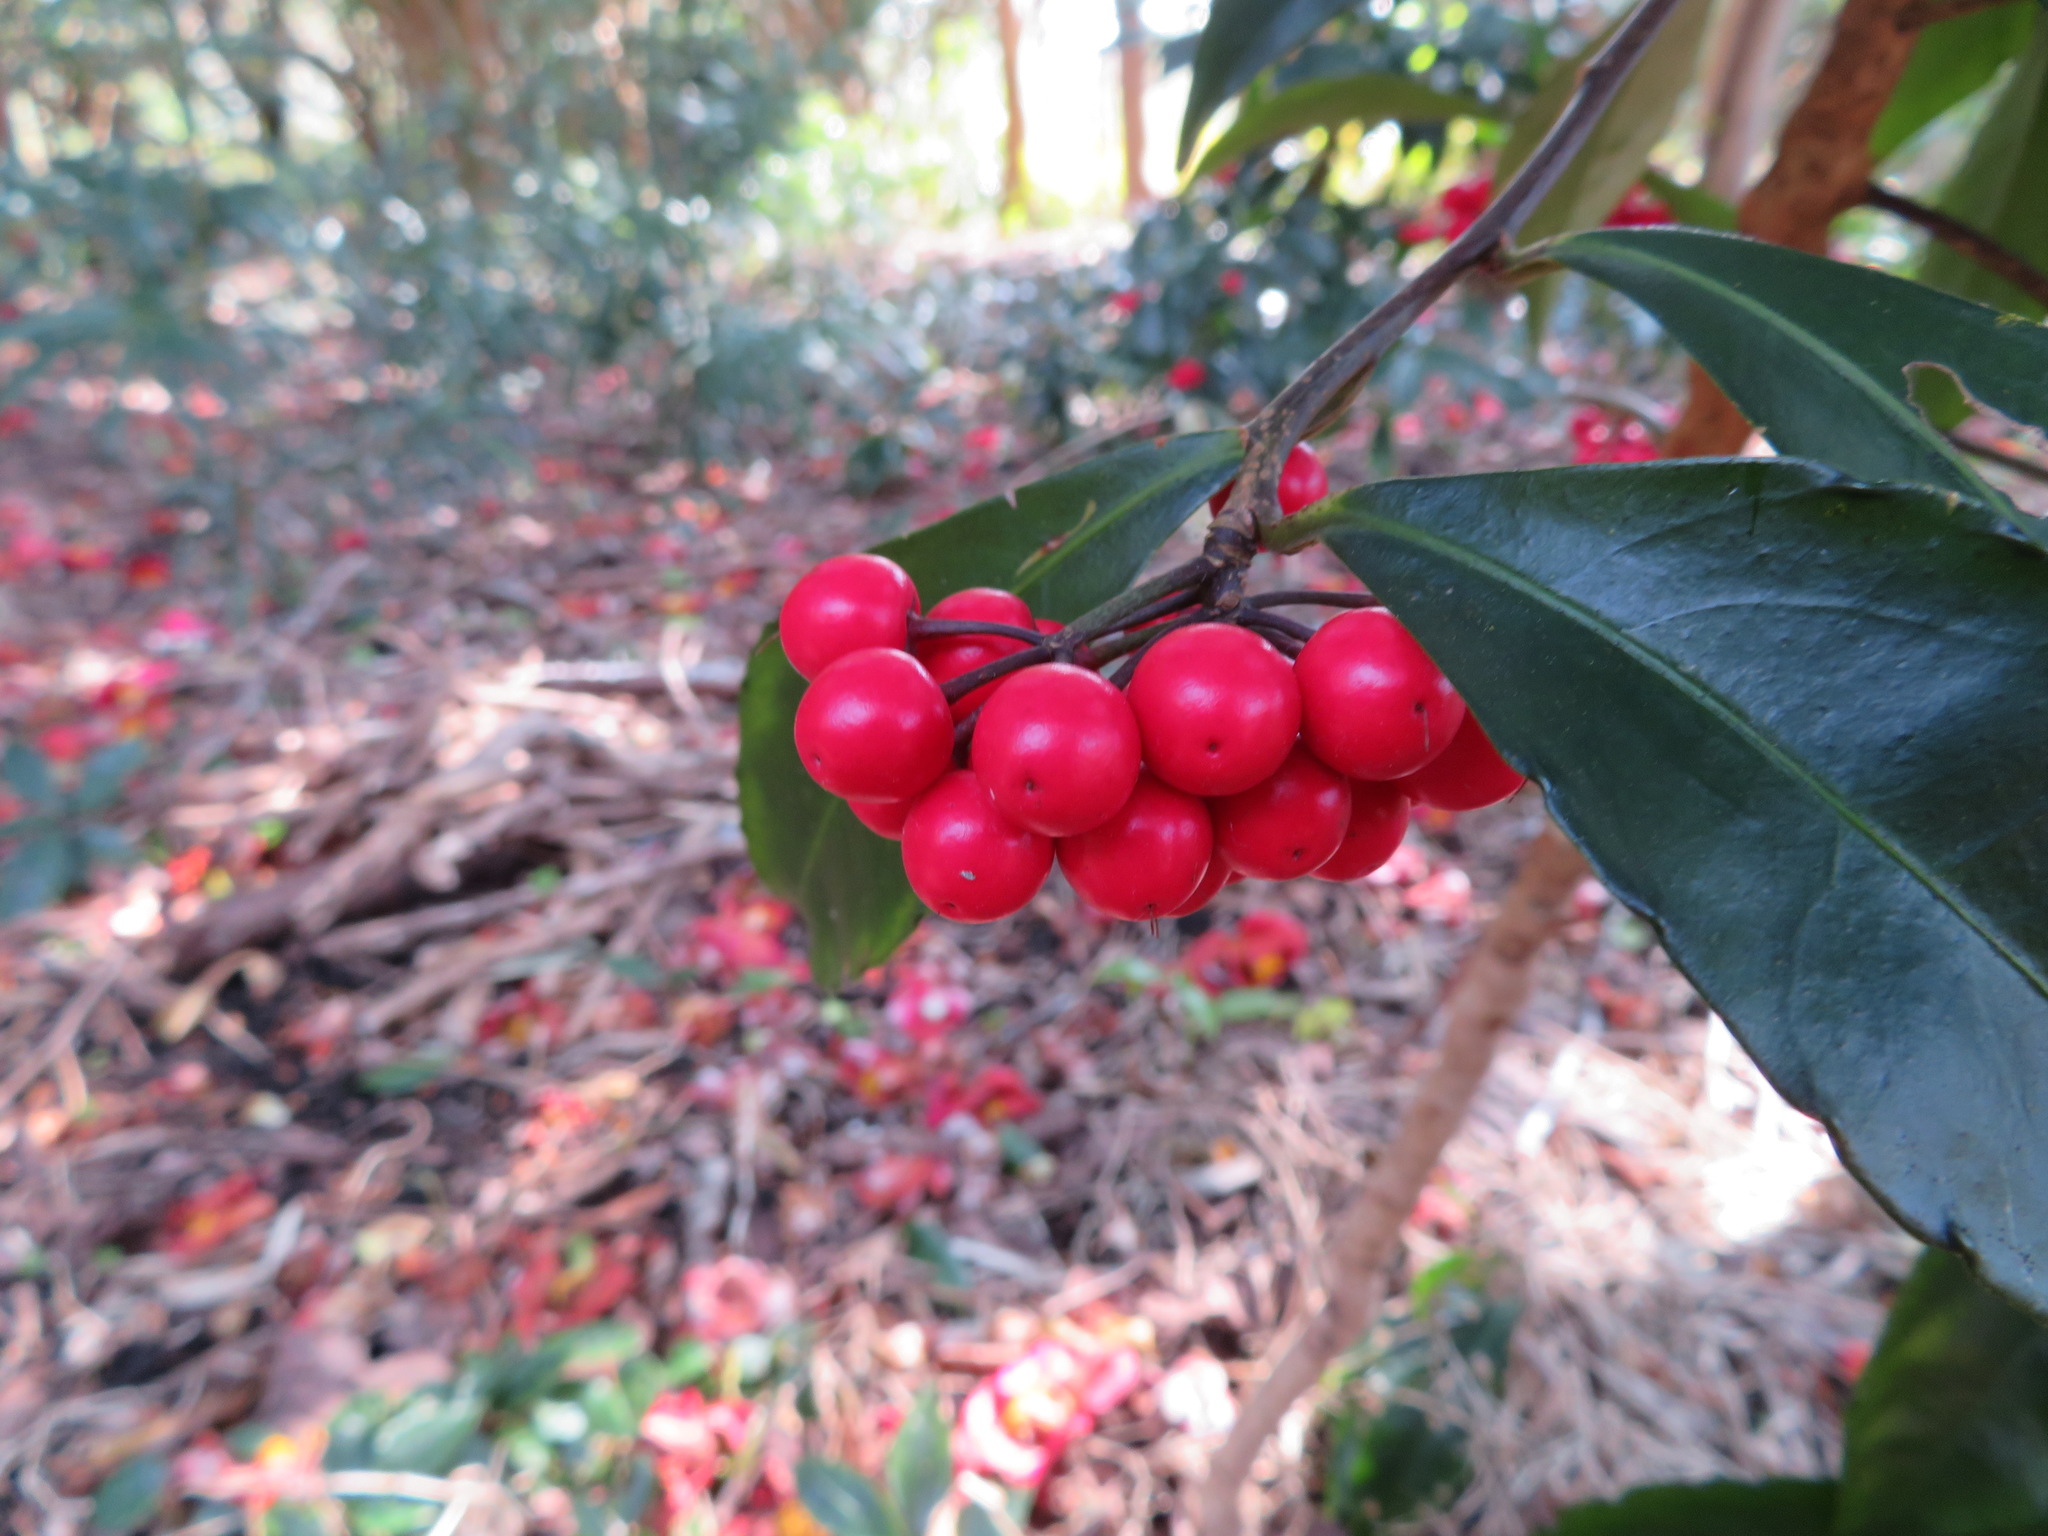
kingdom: Plantae
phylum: Tracheophyta
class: Magnoliopsida
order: Ericales
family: Primulaceae
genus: Ardisia
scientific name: Ardisia crenata
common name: Hen's eyes
